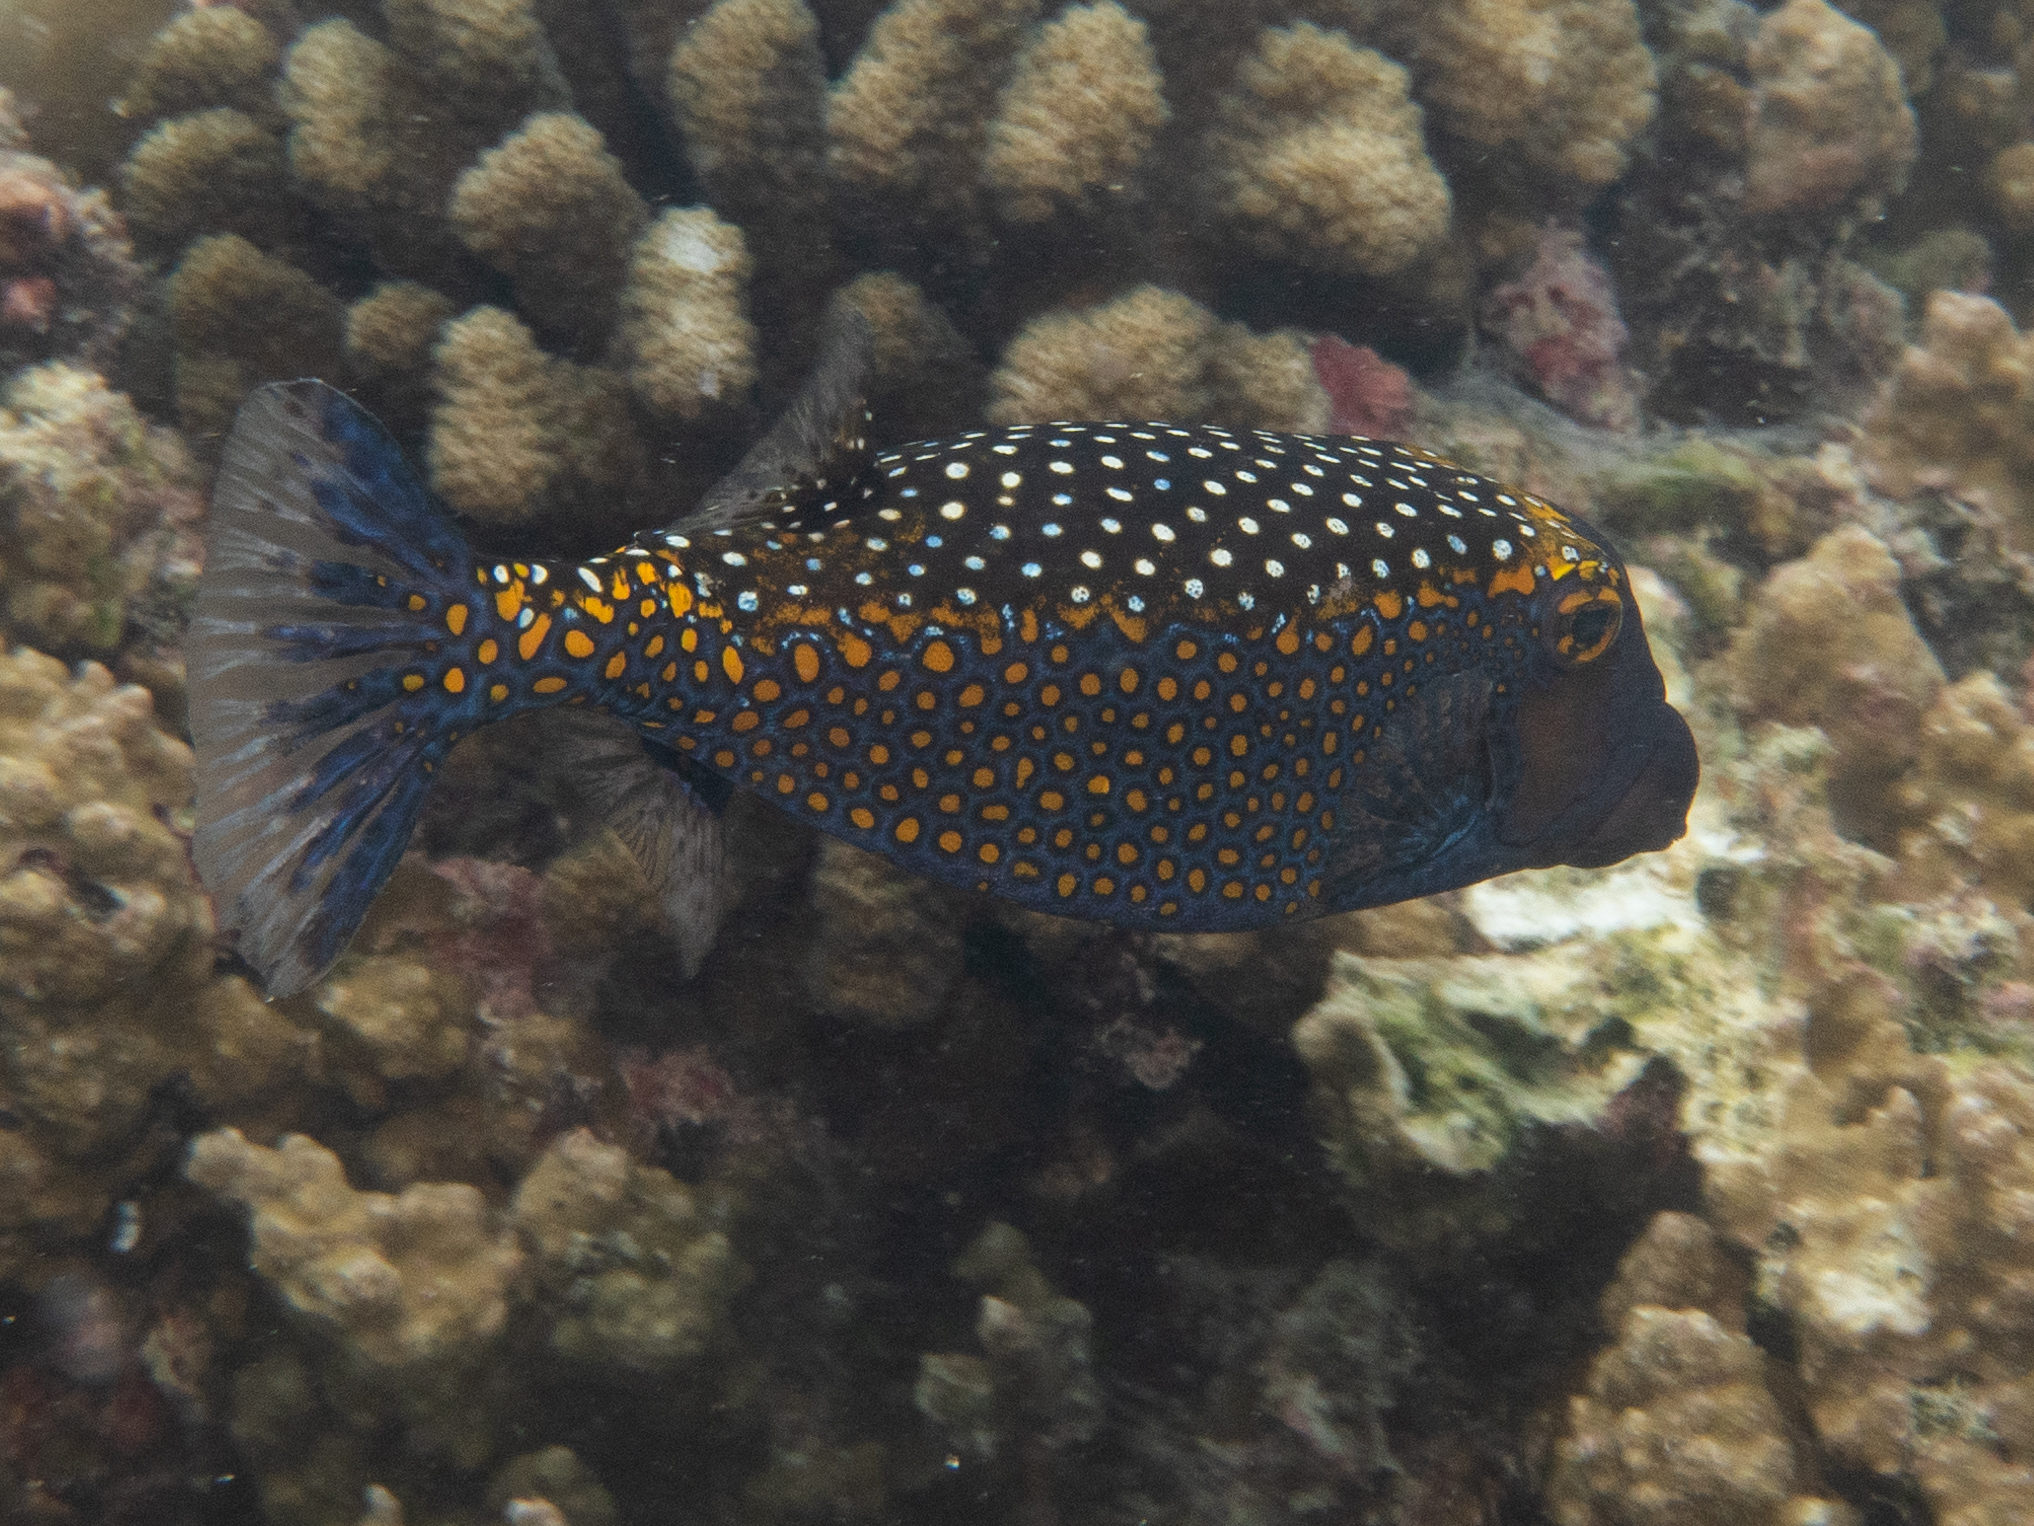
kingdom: Animalia
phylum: Chordata
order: Tetraodontiformes
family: Ostraciidae
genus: Ostracion
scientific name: Ostracion meleagris
